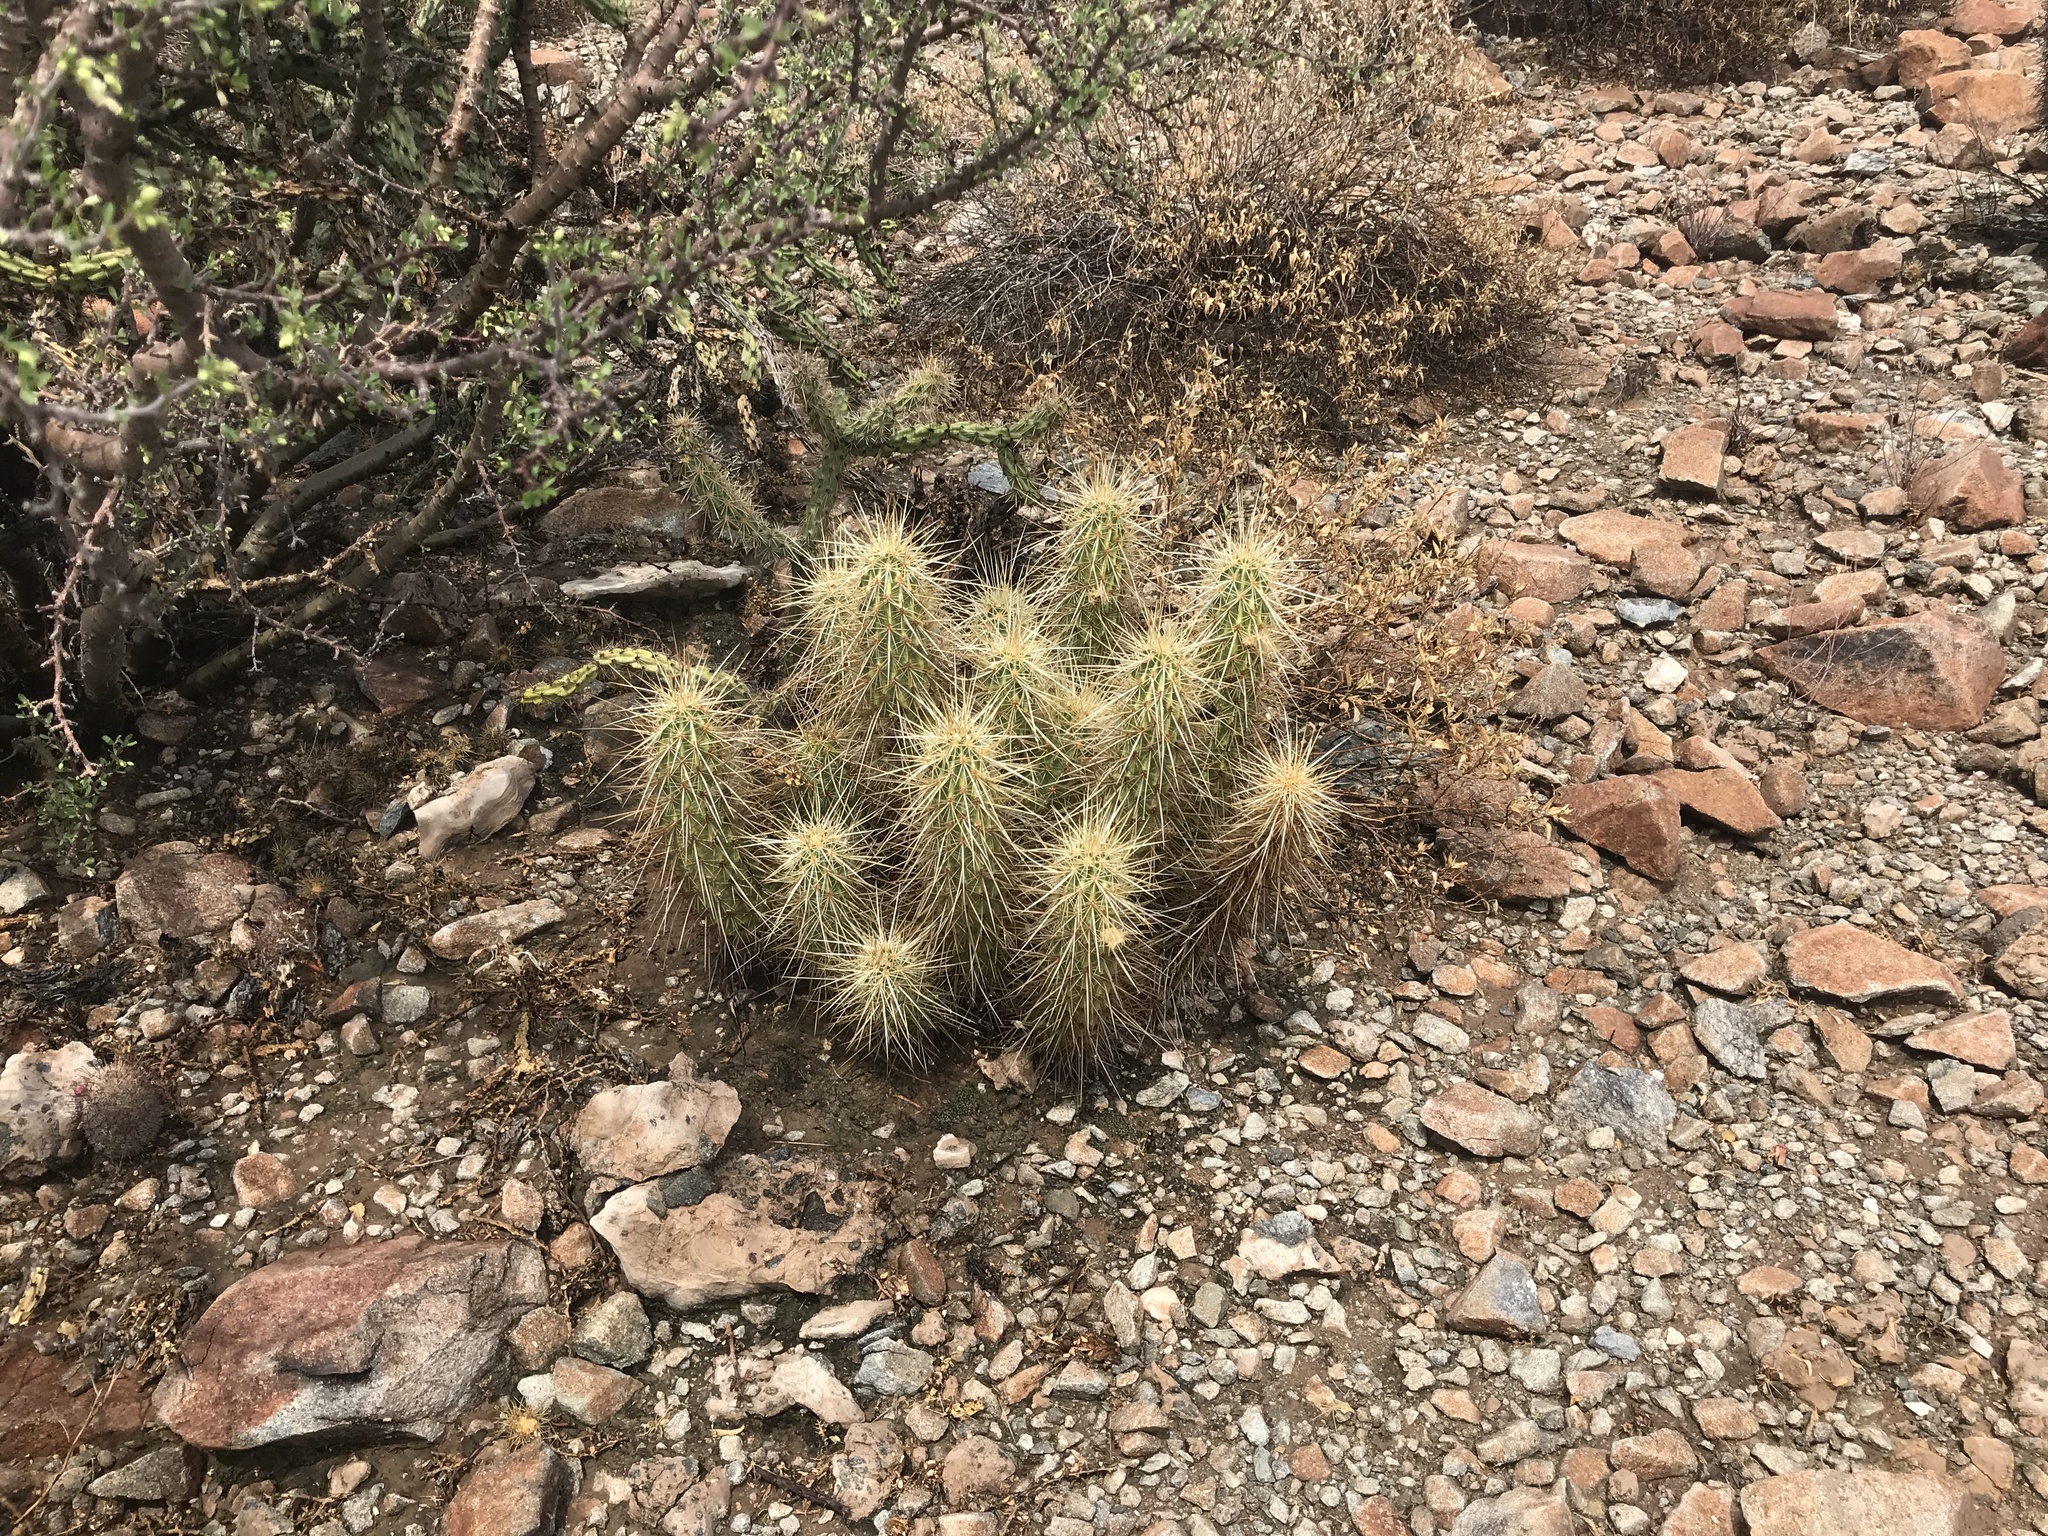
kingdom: Plantae
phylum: Tracheophyta
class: Magnoliopsida
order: Caryophyllales
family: Cactaceae
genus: Echinocereus
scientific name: Echinocereus nicholii
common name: Nichol's hedgehog cactus
